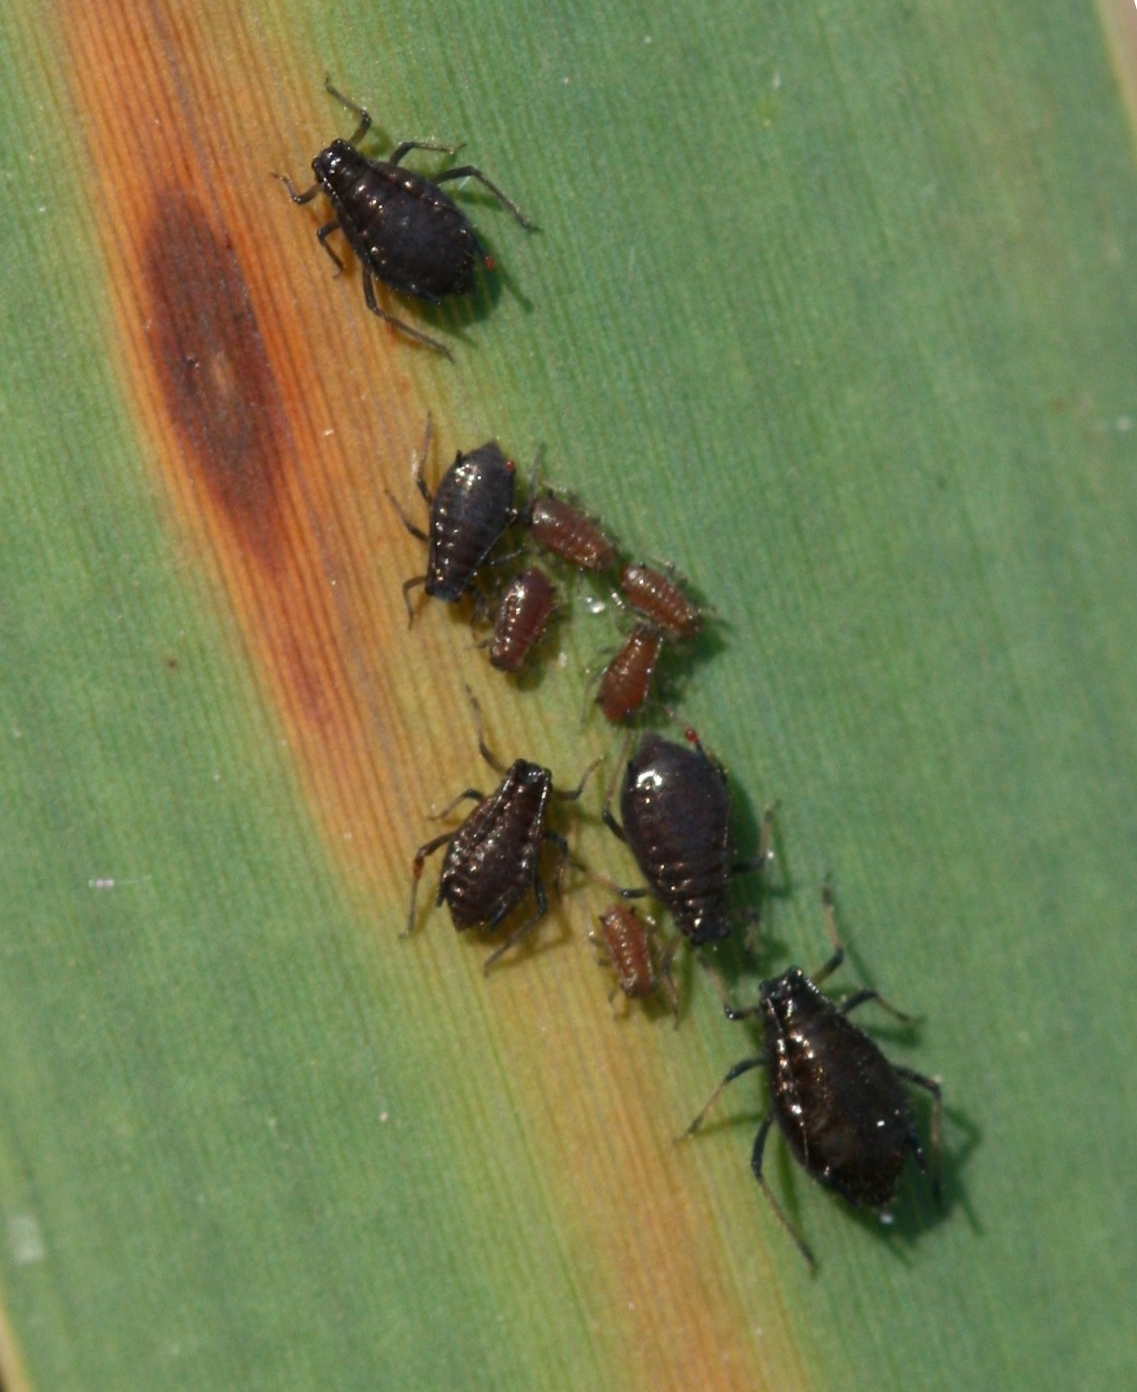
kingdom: Animalia
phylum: Arthropoda
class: Insecta
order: Hemiptera
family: Aphididae
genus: Schizaphis
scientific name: Schizaphis scirpi
